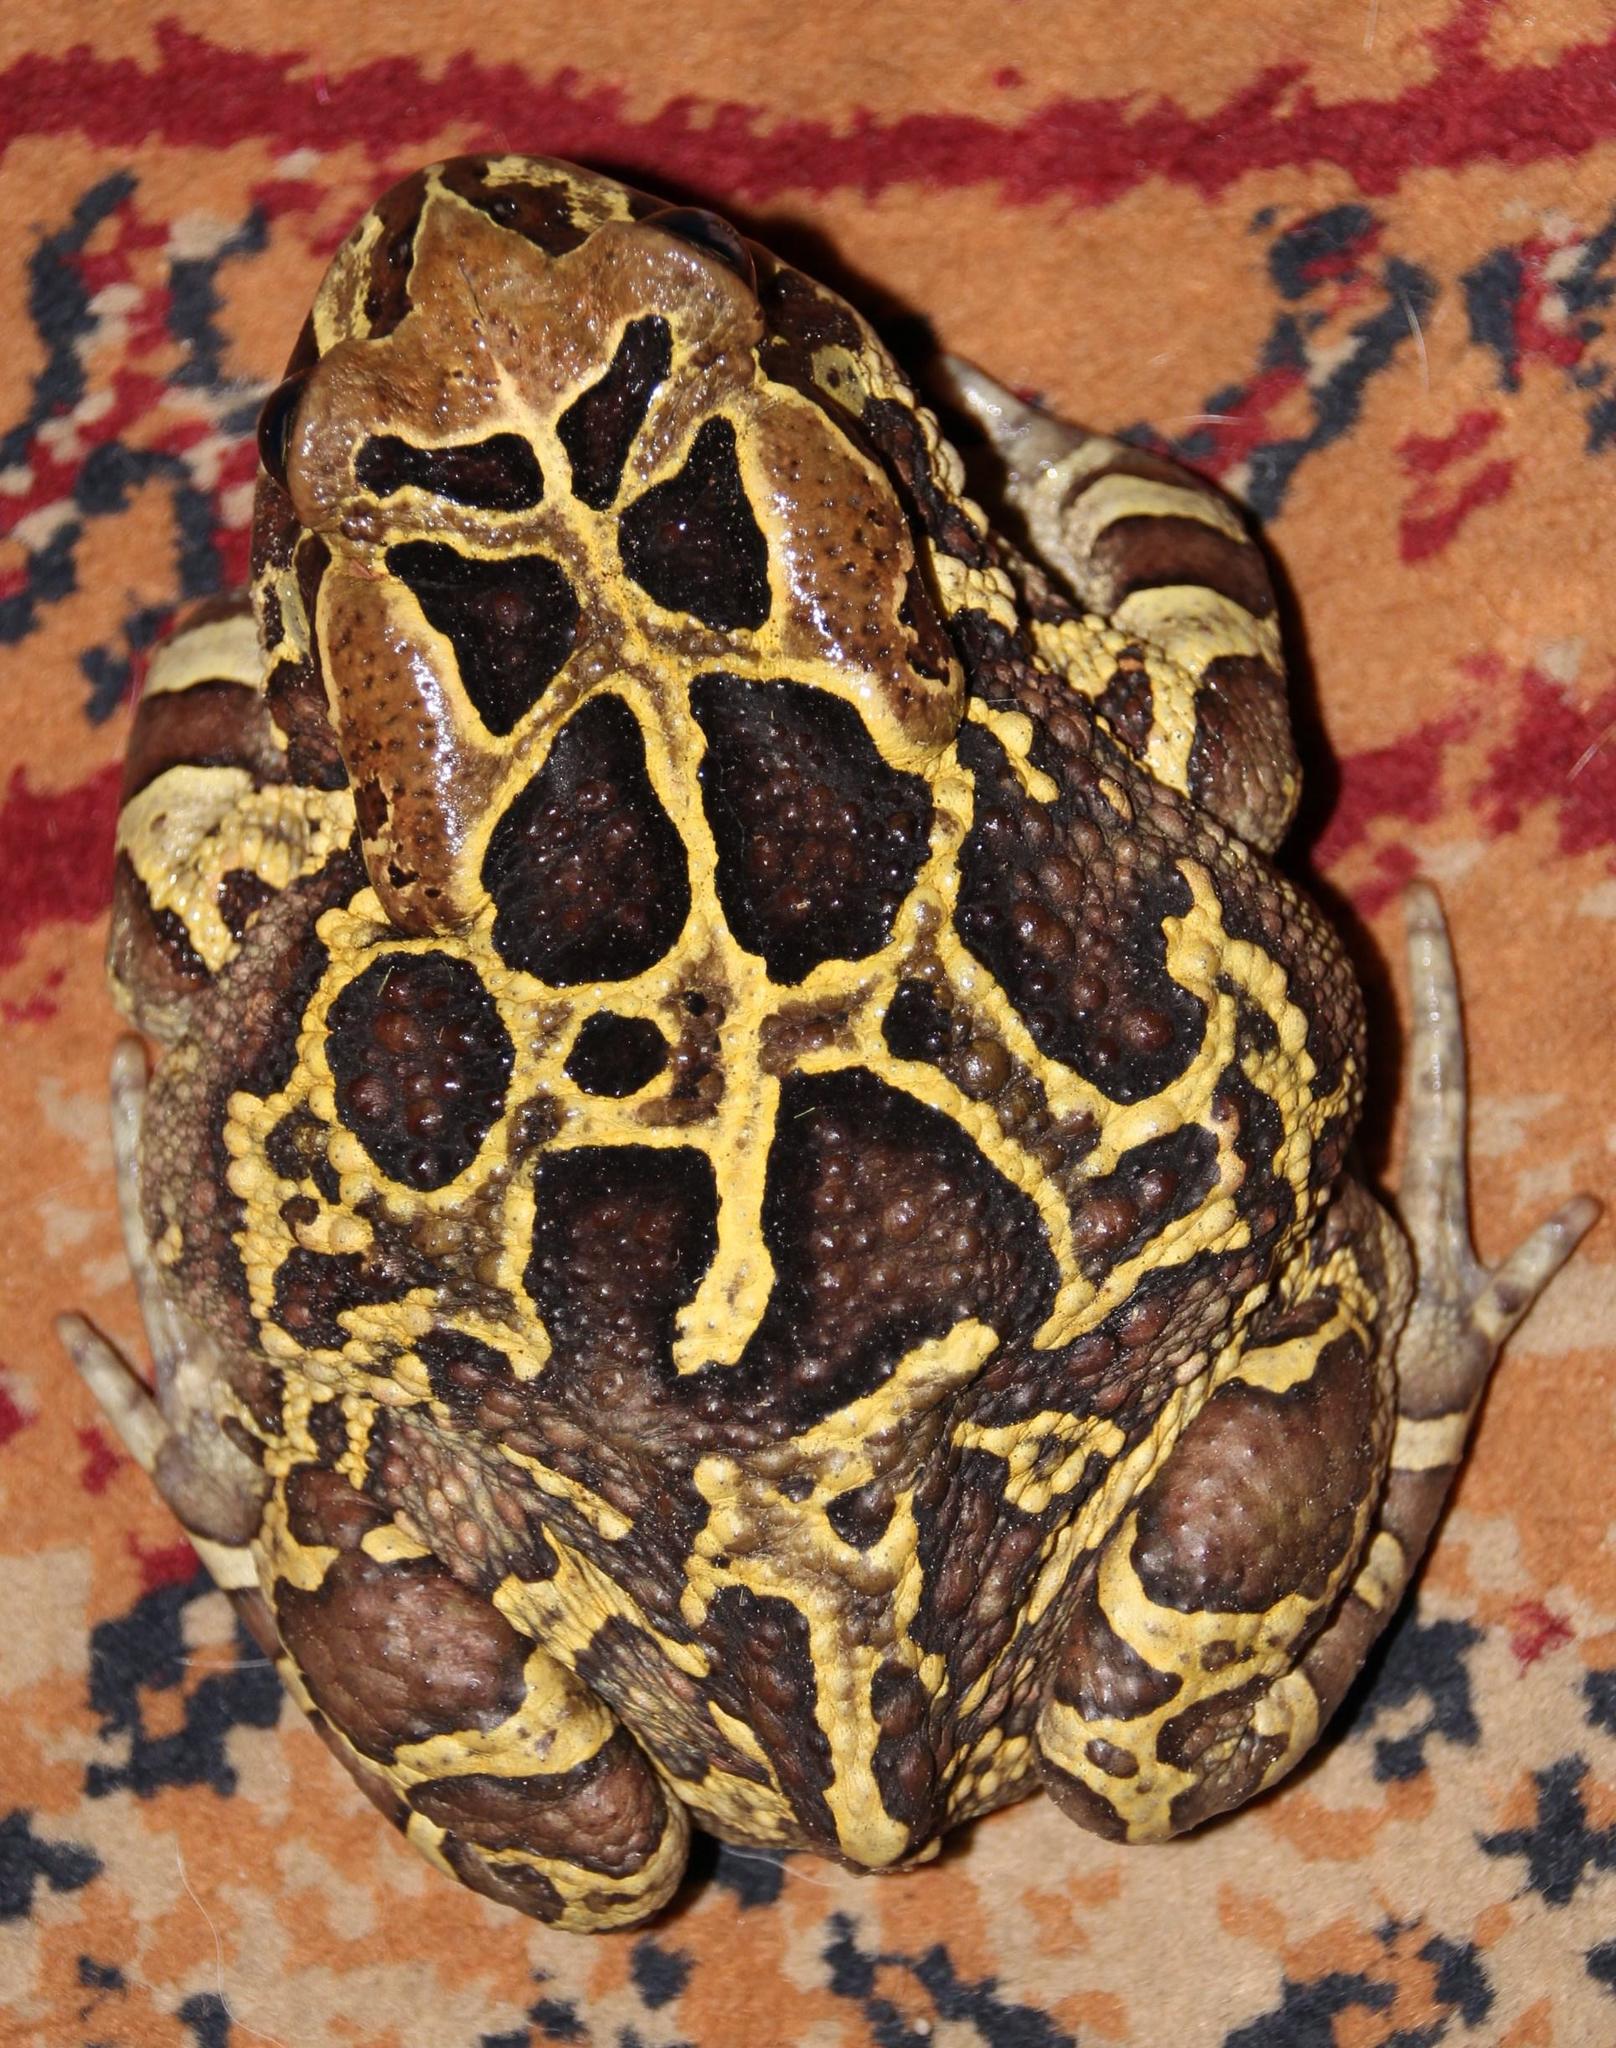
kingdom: Animalia
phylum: Chordata
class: Amphibia
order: Anura
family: Bufonidae
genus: Sclerophrys
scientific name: Sclerophrys pantherina
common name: Panther toad
